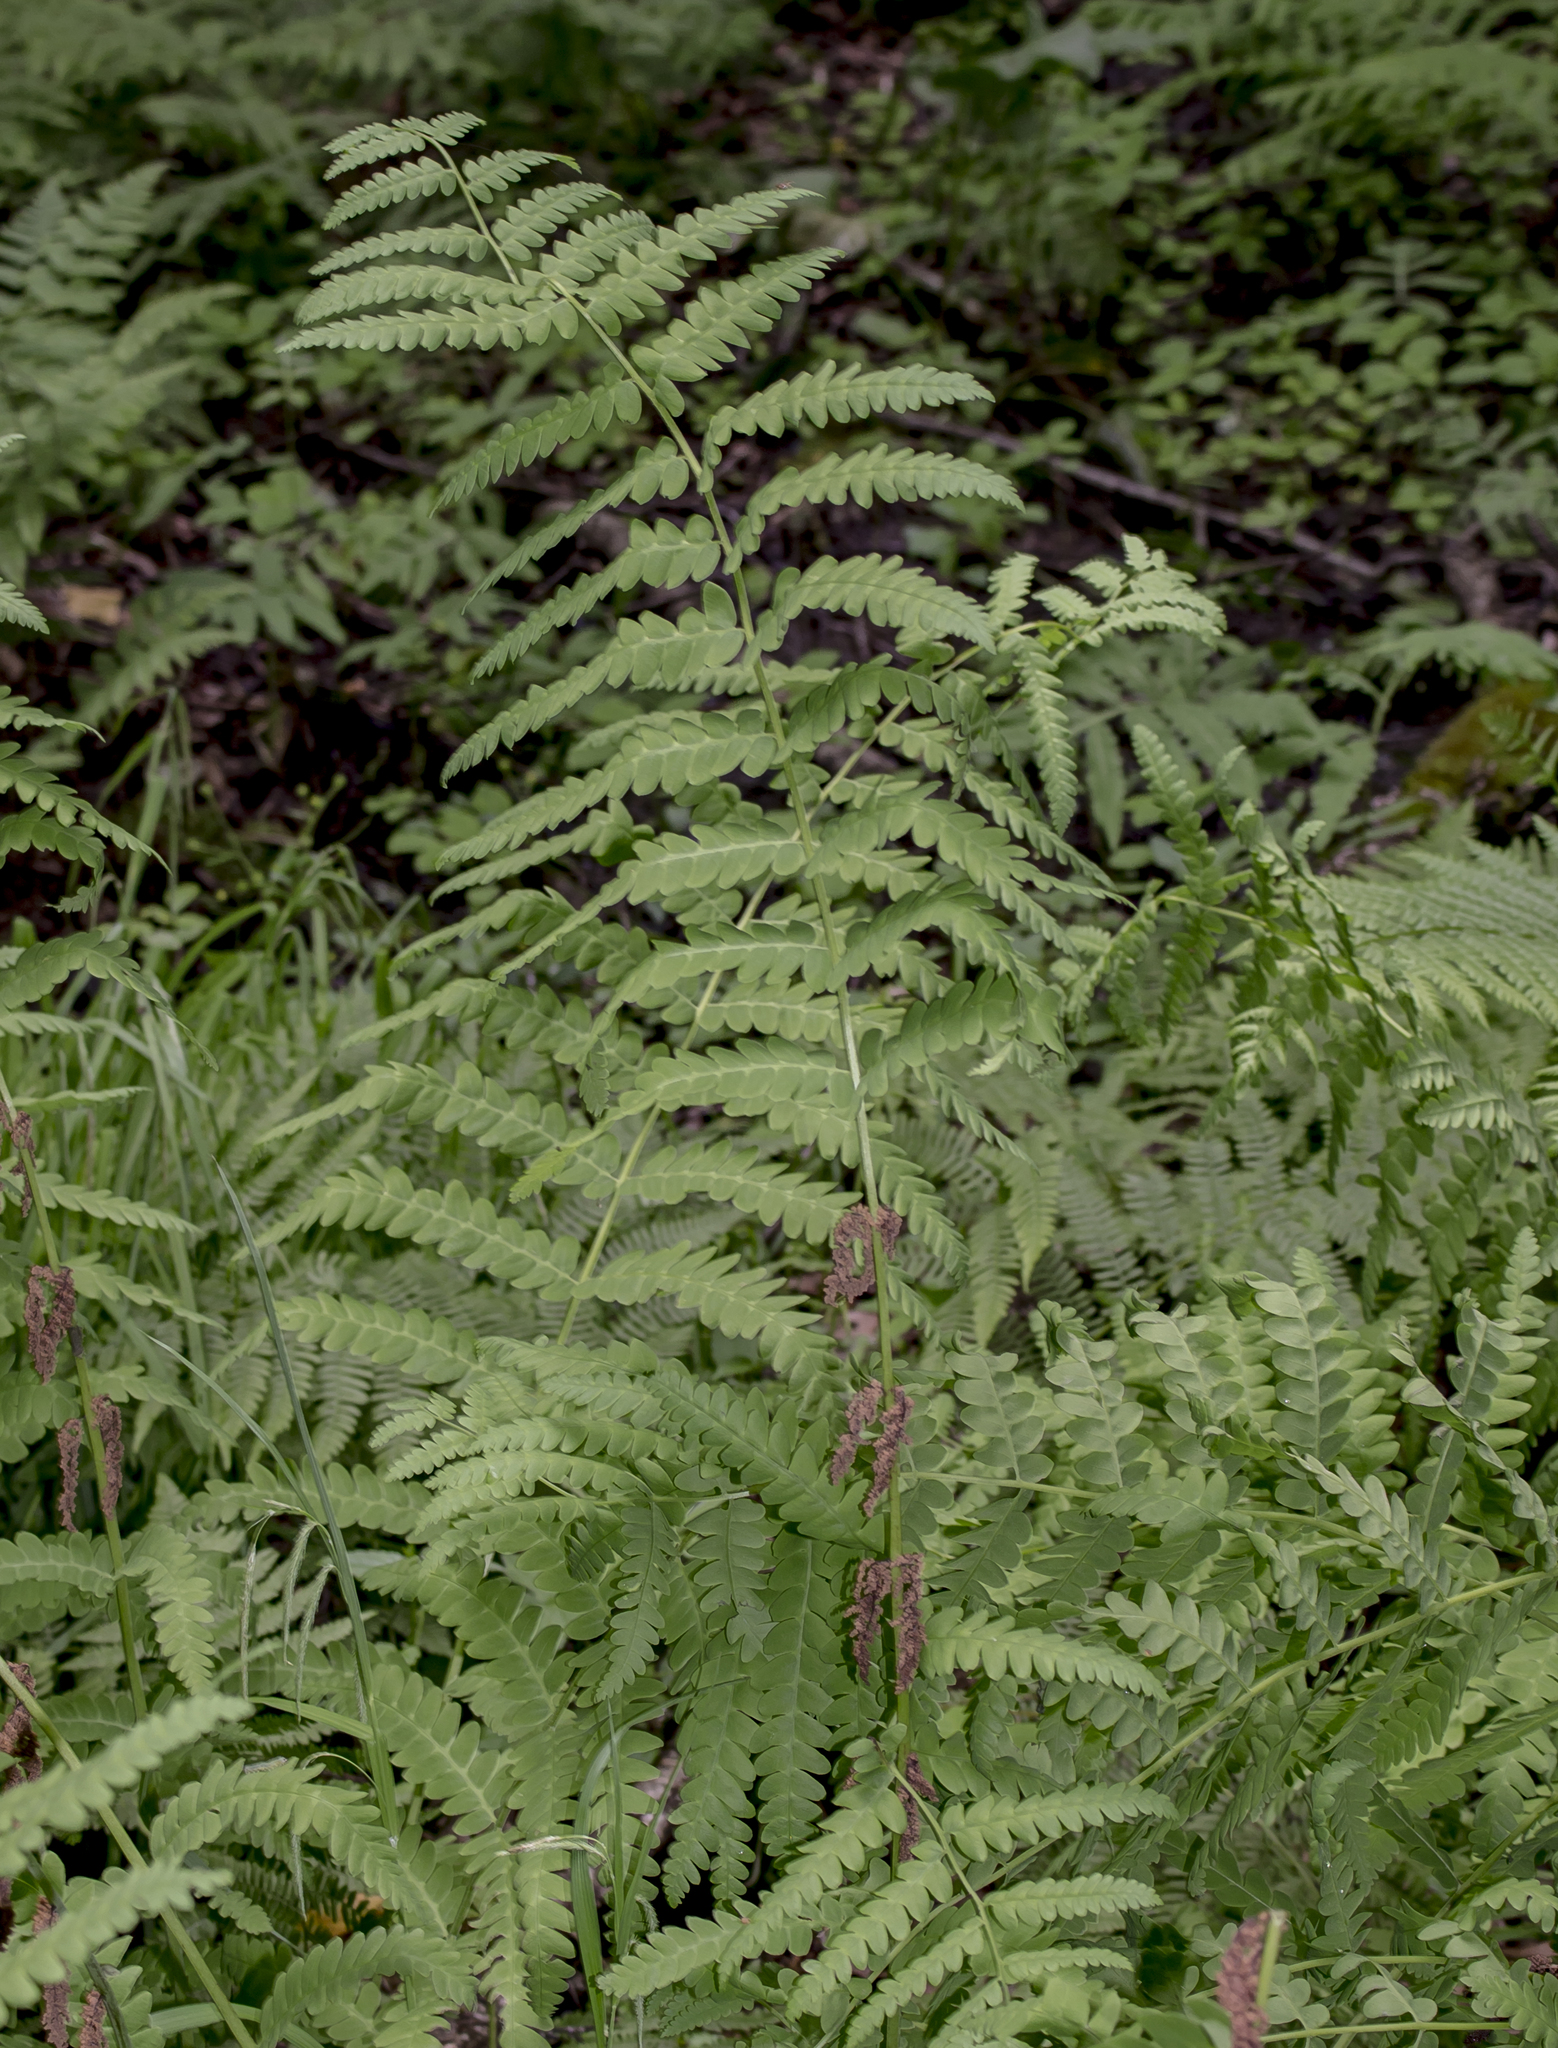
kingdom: Plantae
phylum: Tracheophyta
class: Polypodiopsida
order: Osmundales
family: Osmundaceae
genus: Claytosmunda
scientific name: Claytosmunda claytoniana
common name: Clayton's fern
